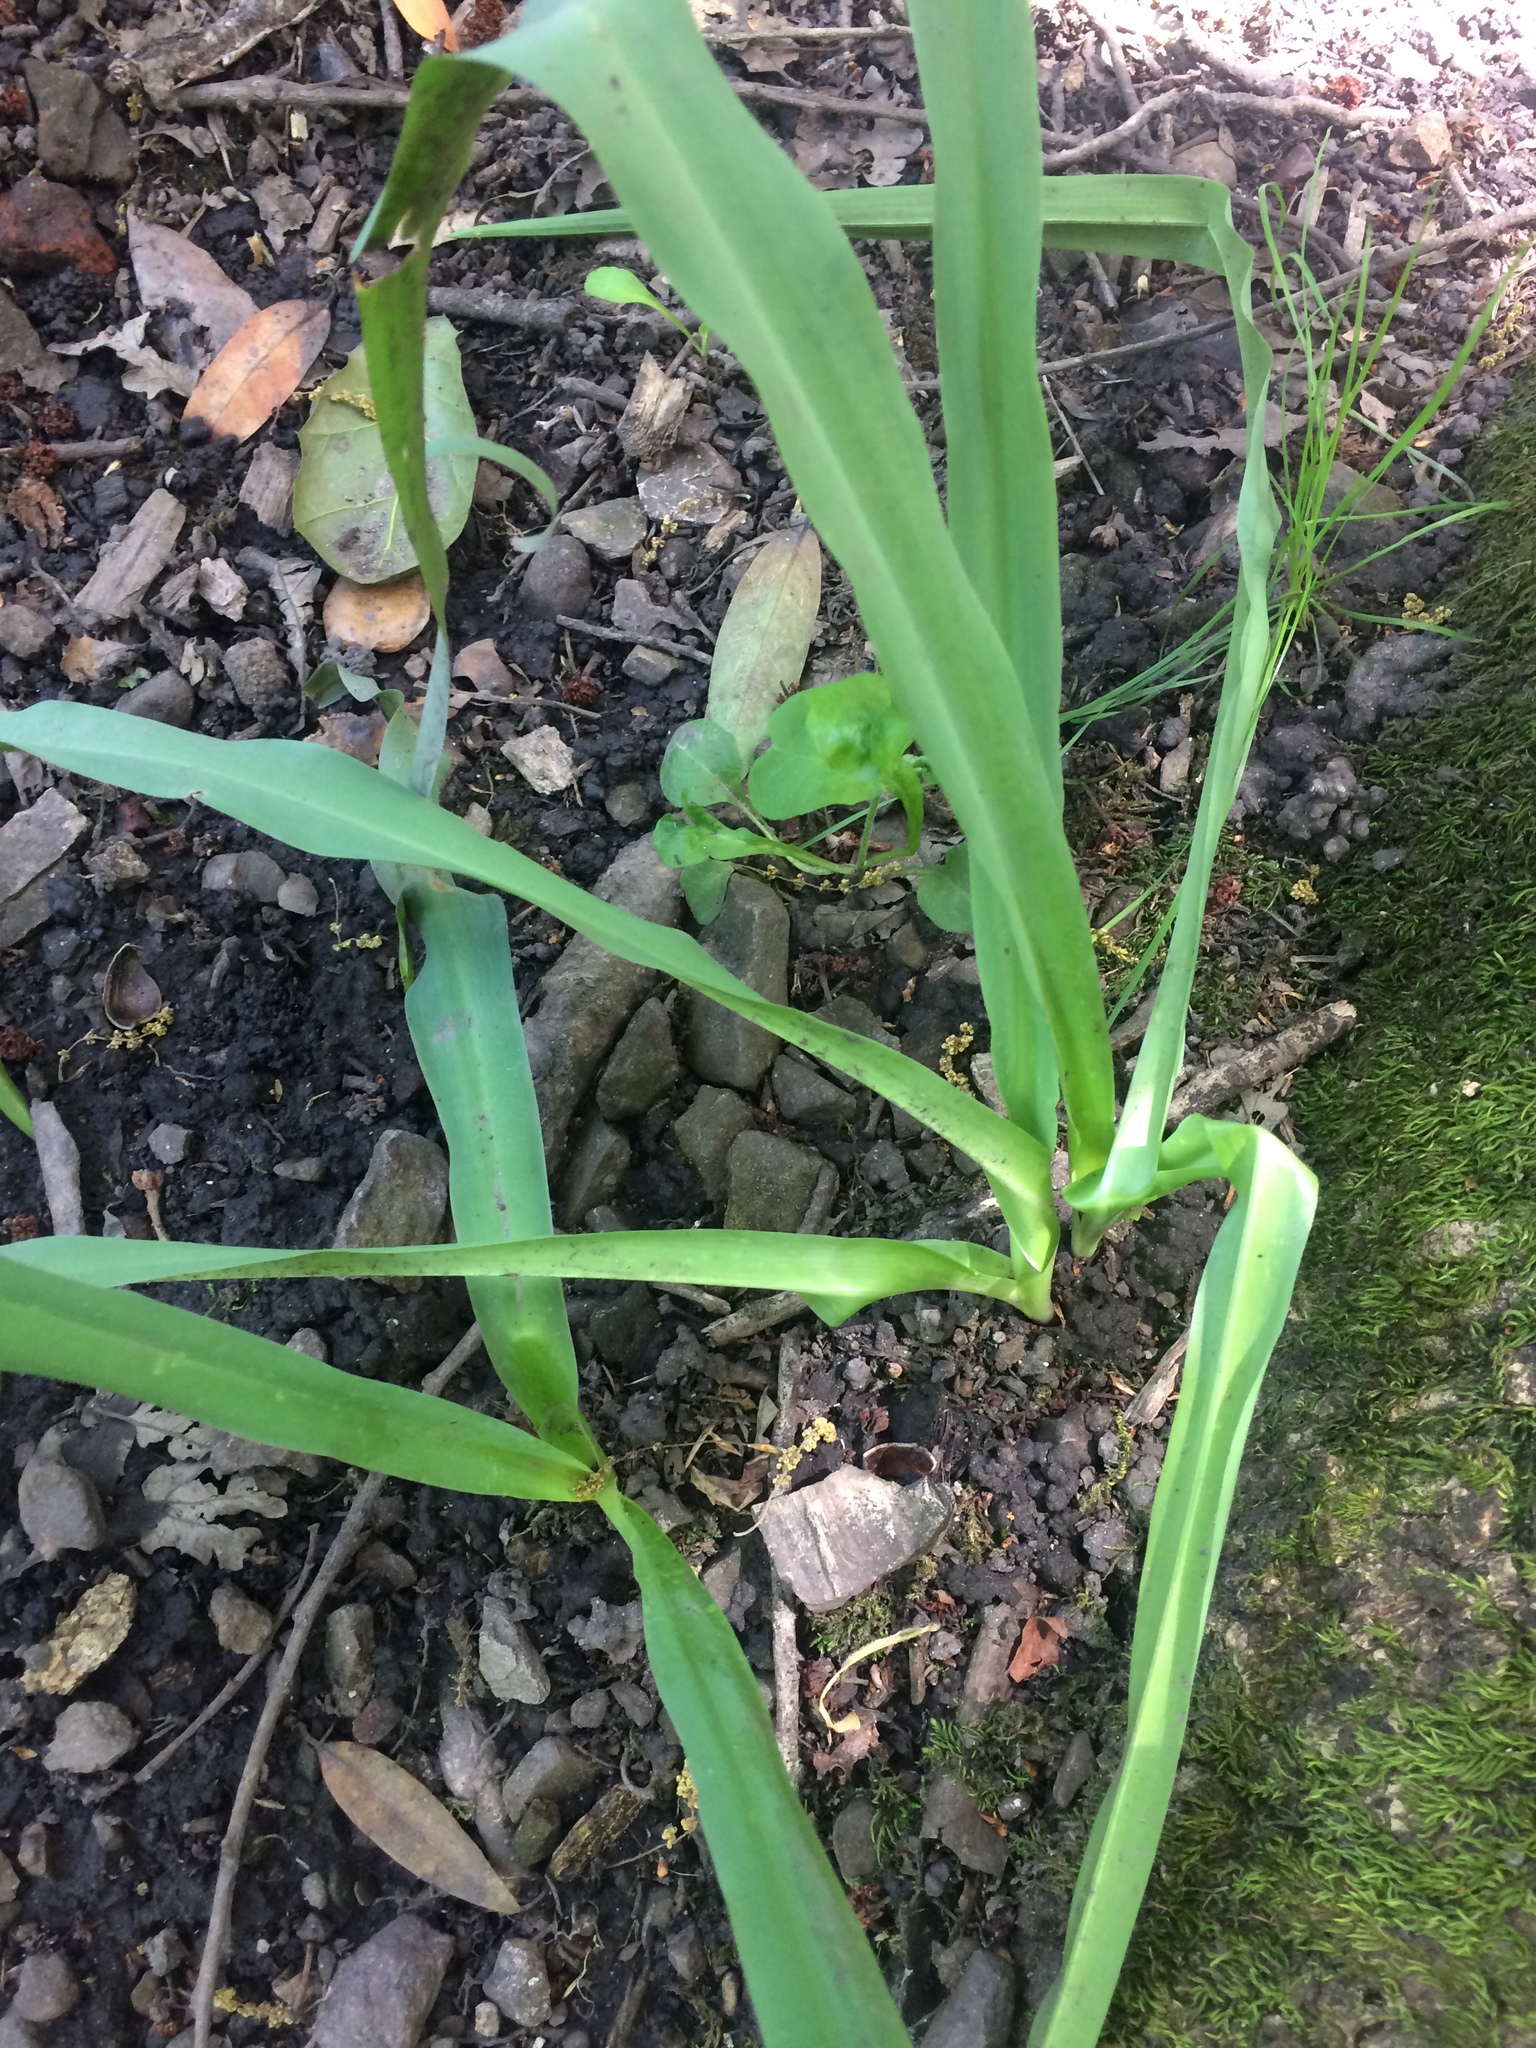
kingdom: Plantae
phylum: Tracheophyta
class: Liliopsida
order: Asparagales
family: Asparagaceae
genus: Chlorogalum
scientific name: Chlorogalum pomeridianum
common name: Amole
